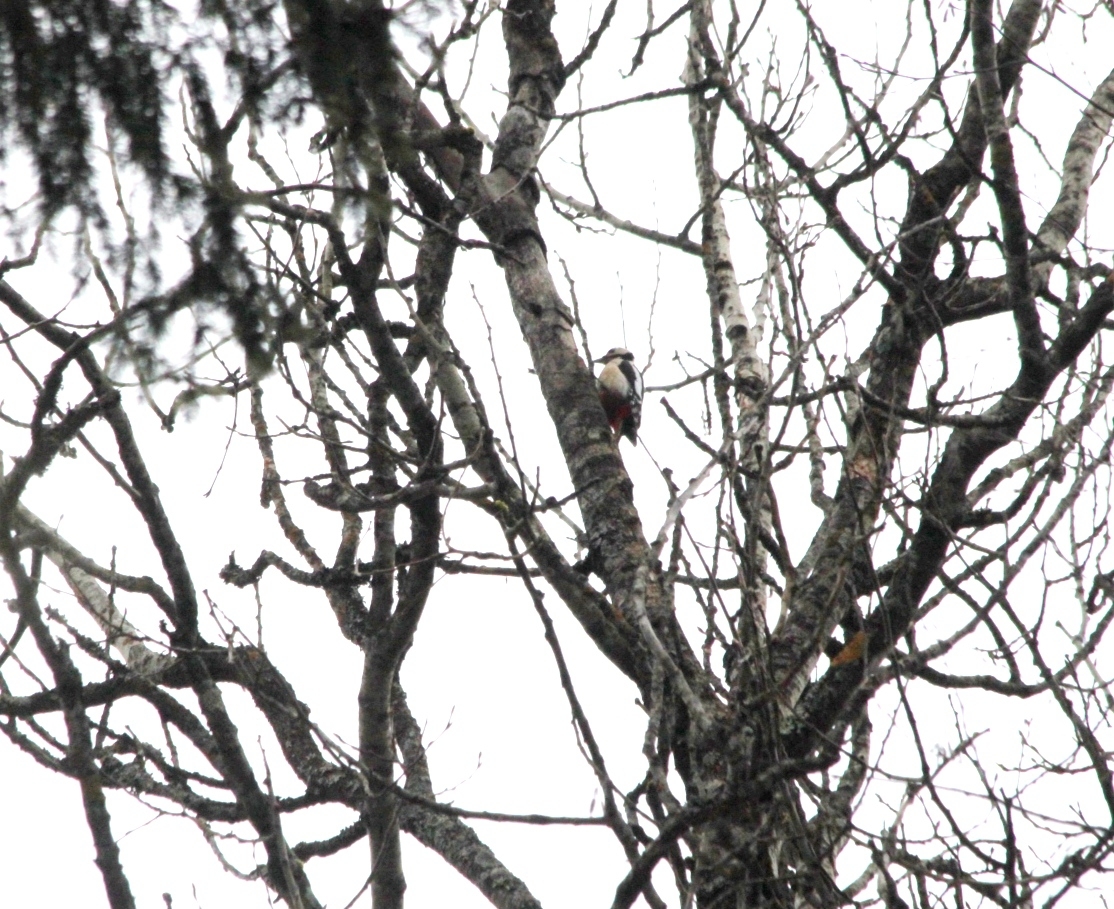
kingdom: Animalia
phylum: Chordata
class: Aves
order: Piciformes
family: Picidae
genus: Dendrocopos
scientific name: Dendrocopos major
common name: Great spotted woodpecker
